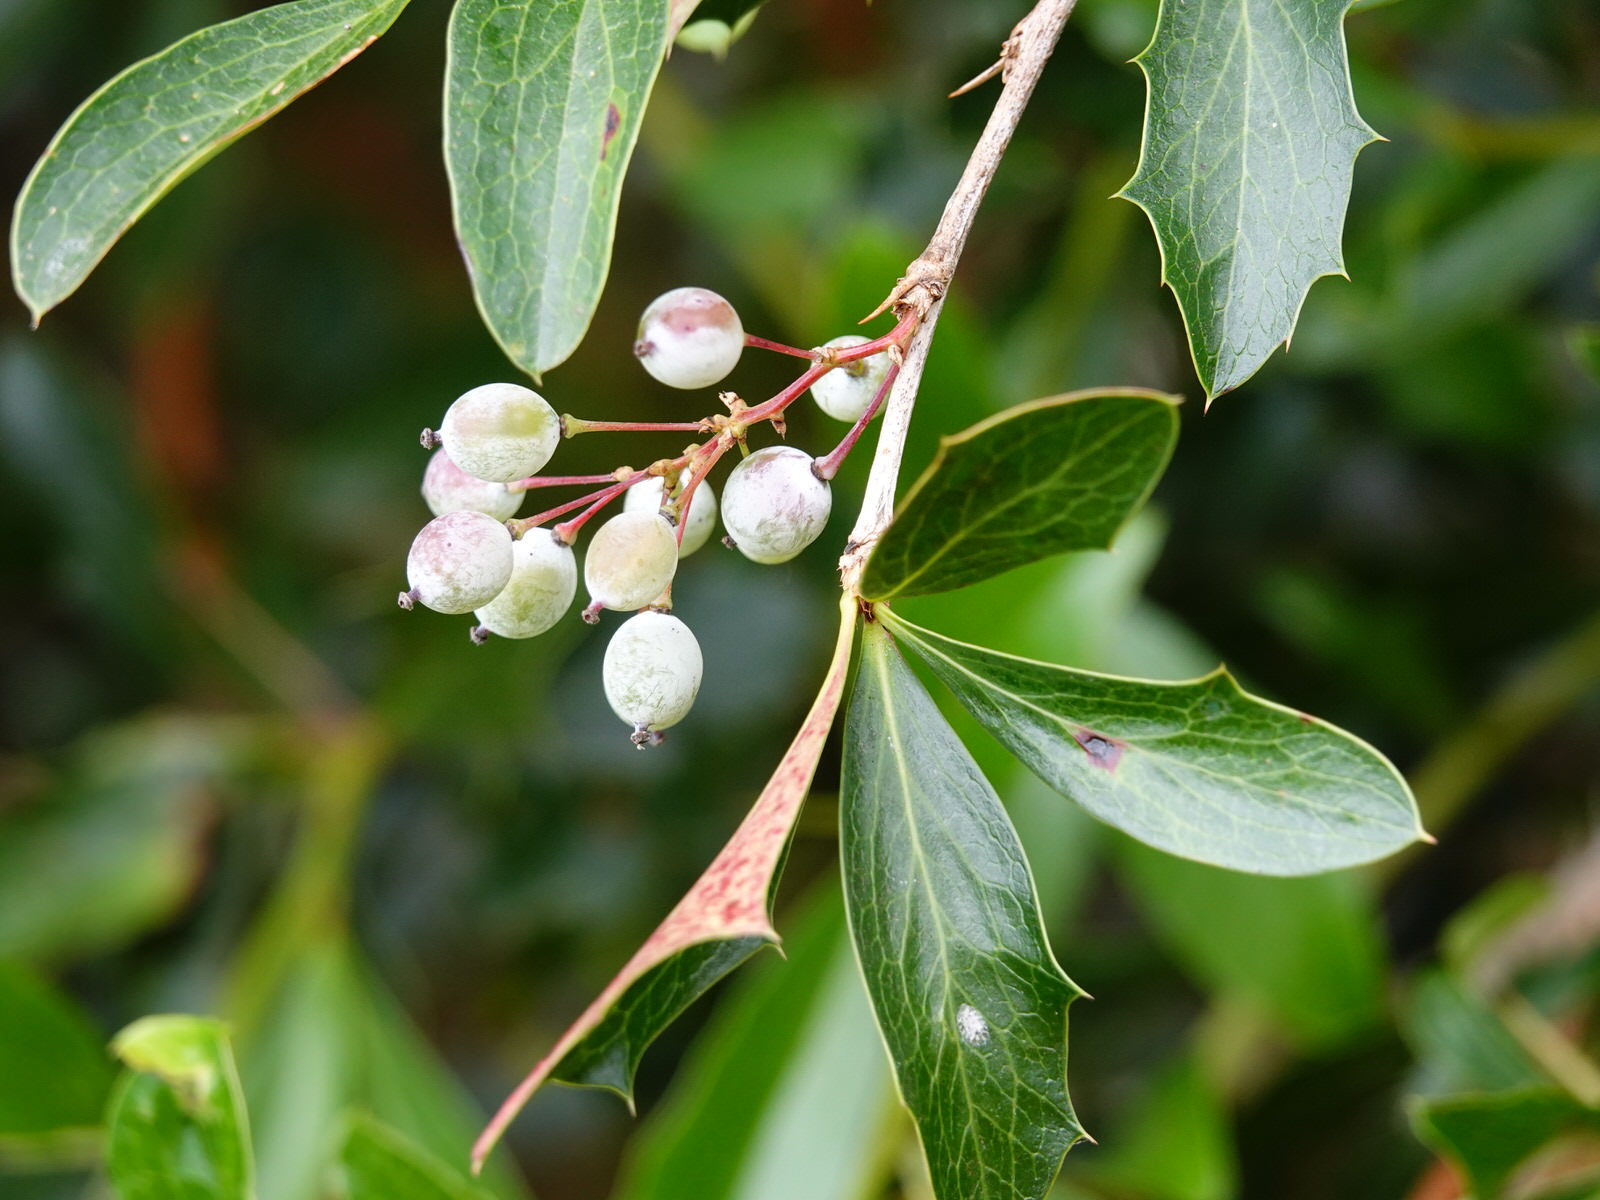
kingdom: Plantae
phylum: Tracheophyta
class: Magnoliopsida
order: Ranunculales
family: Berberidaceae
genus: Berberis
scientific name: Berberis glaucocarpa
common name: Great barberry
